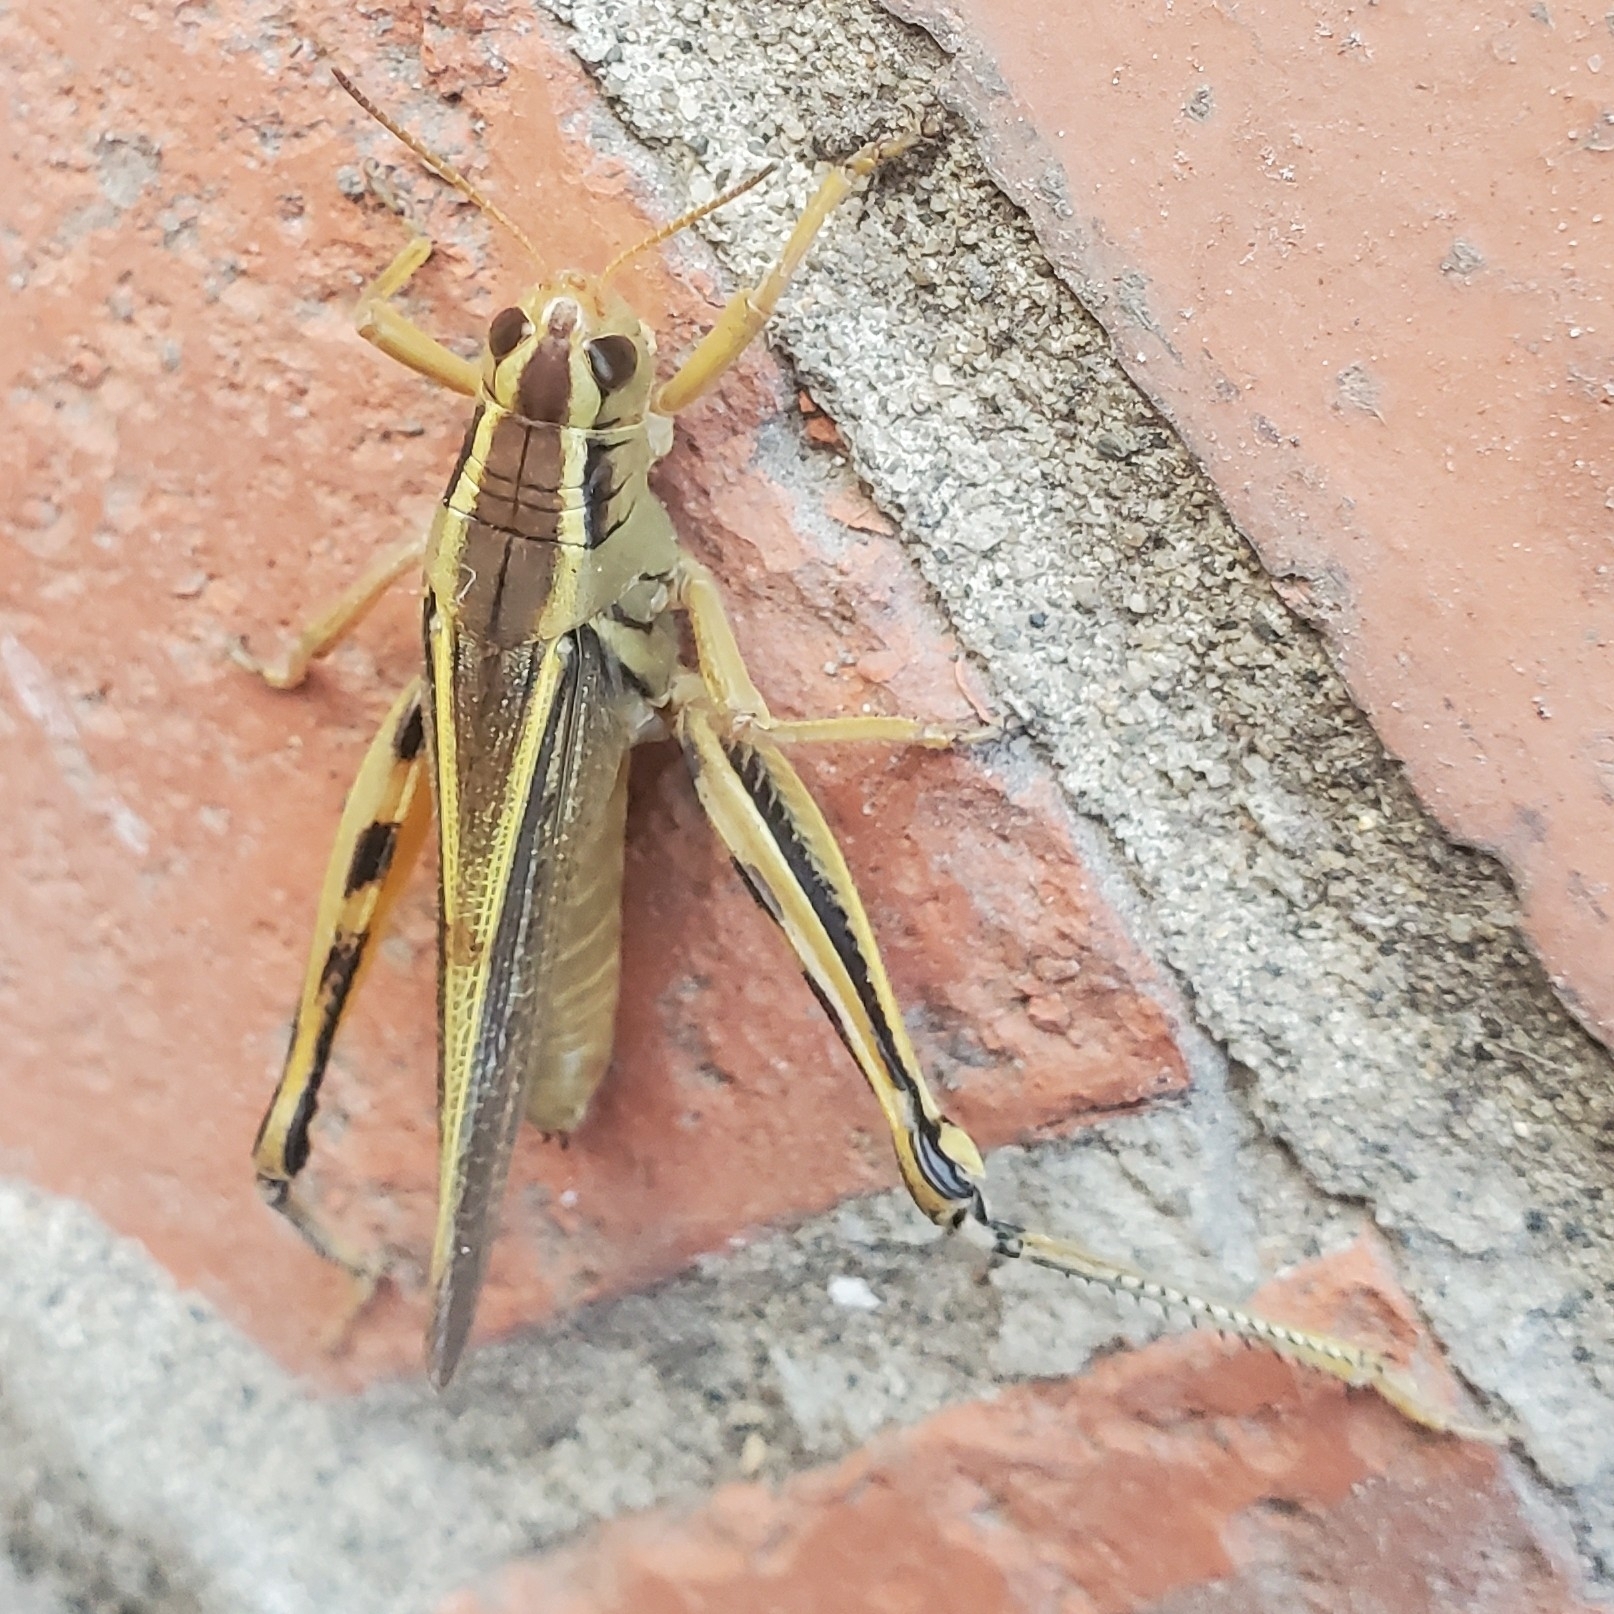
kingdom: Animalia
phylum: Arthropoda
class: Insecta
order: Orthoptera
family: Acrididae
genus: Melanoplus
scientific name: Melanoplus bivittatus
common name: Two-striped grasshopper
